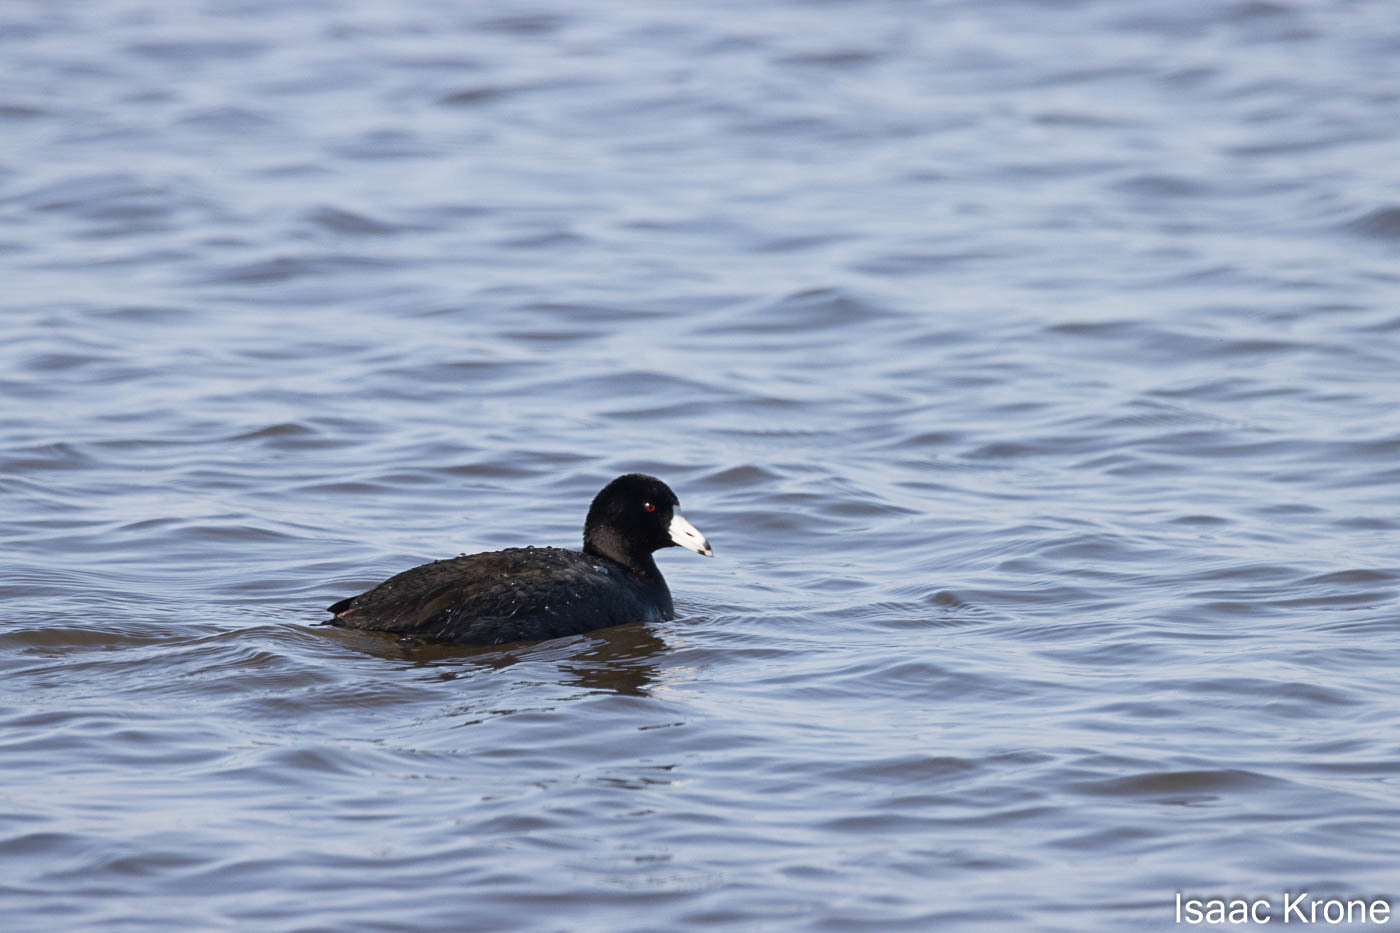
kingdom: Animalia
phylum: Chordata
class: Aves
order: Gruiformes
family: Rallidae
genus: Fulica
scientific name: Fulica americana
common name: American coot
